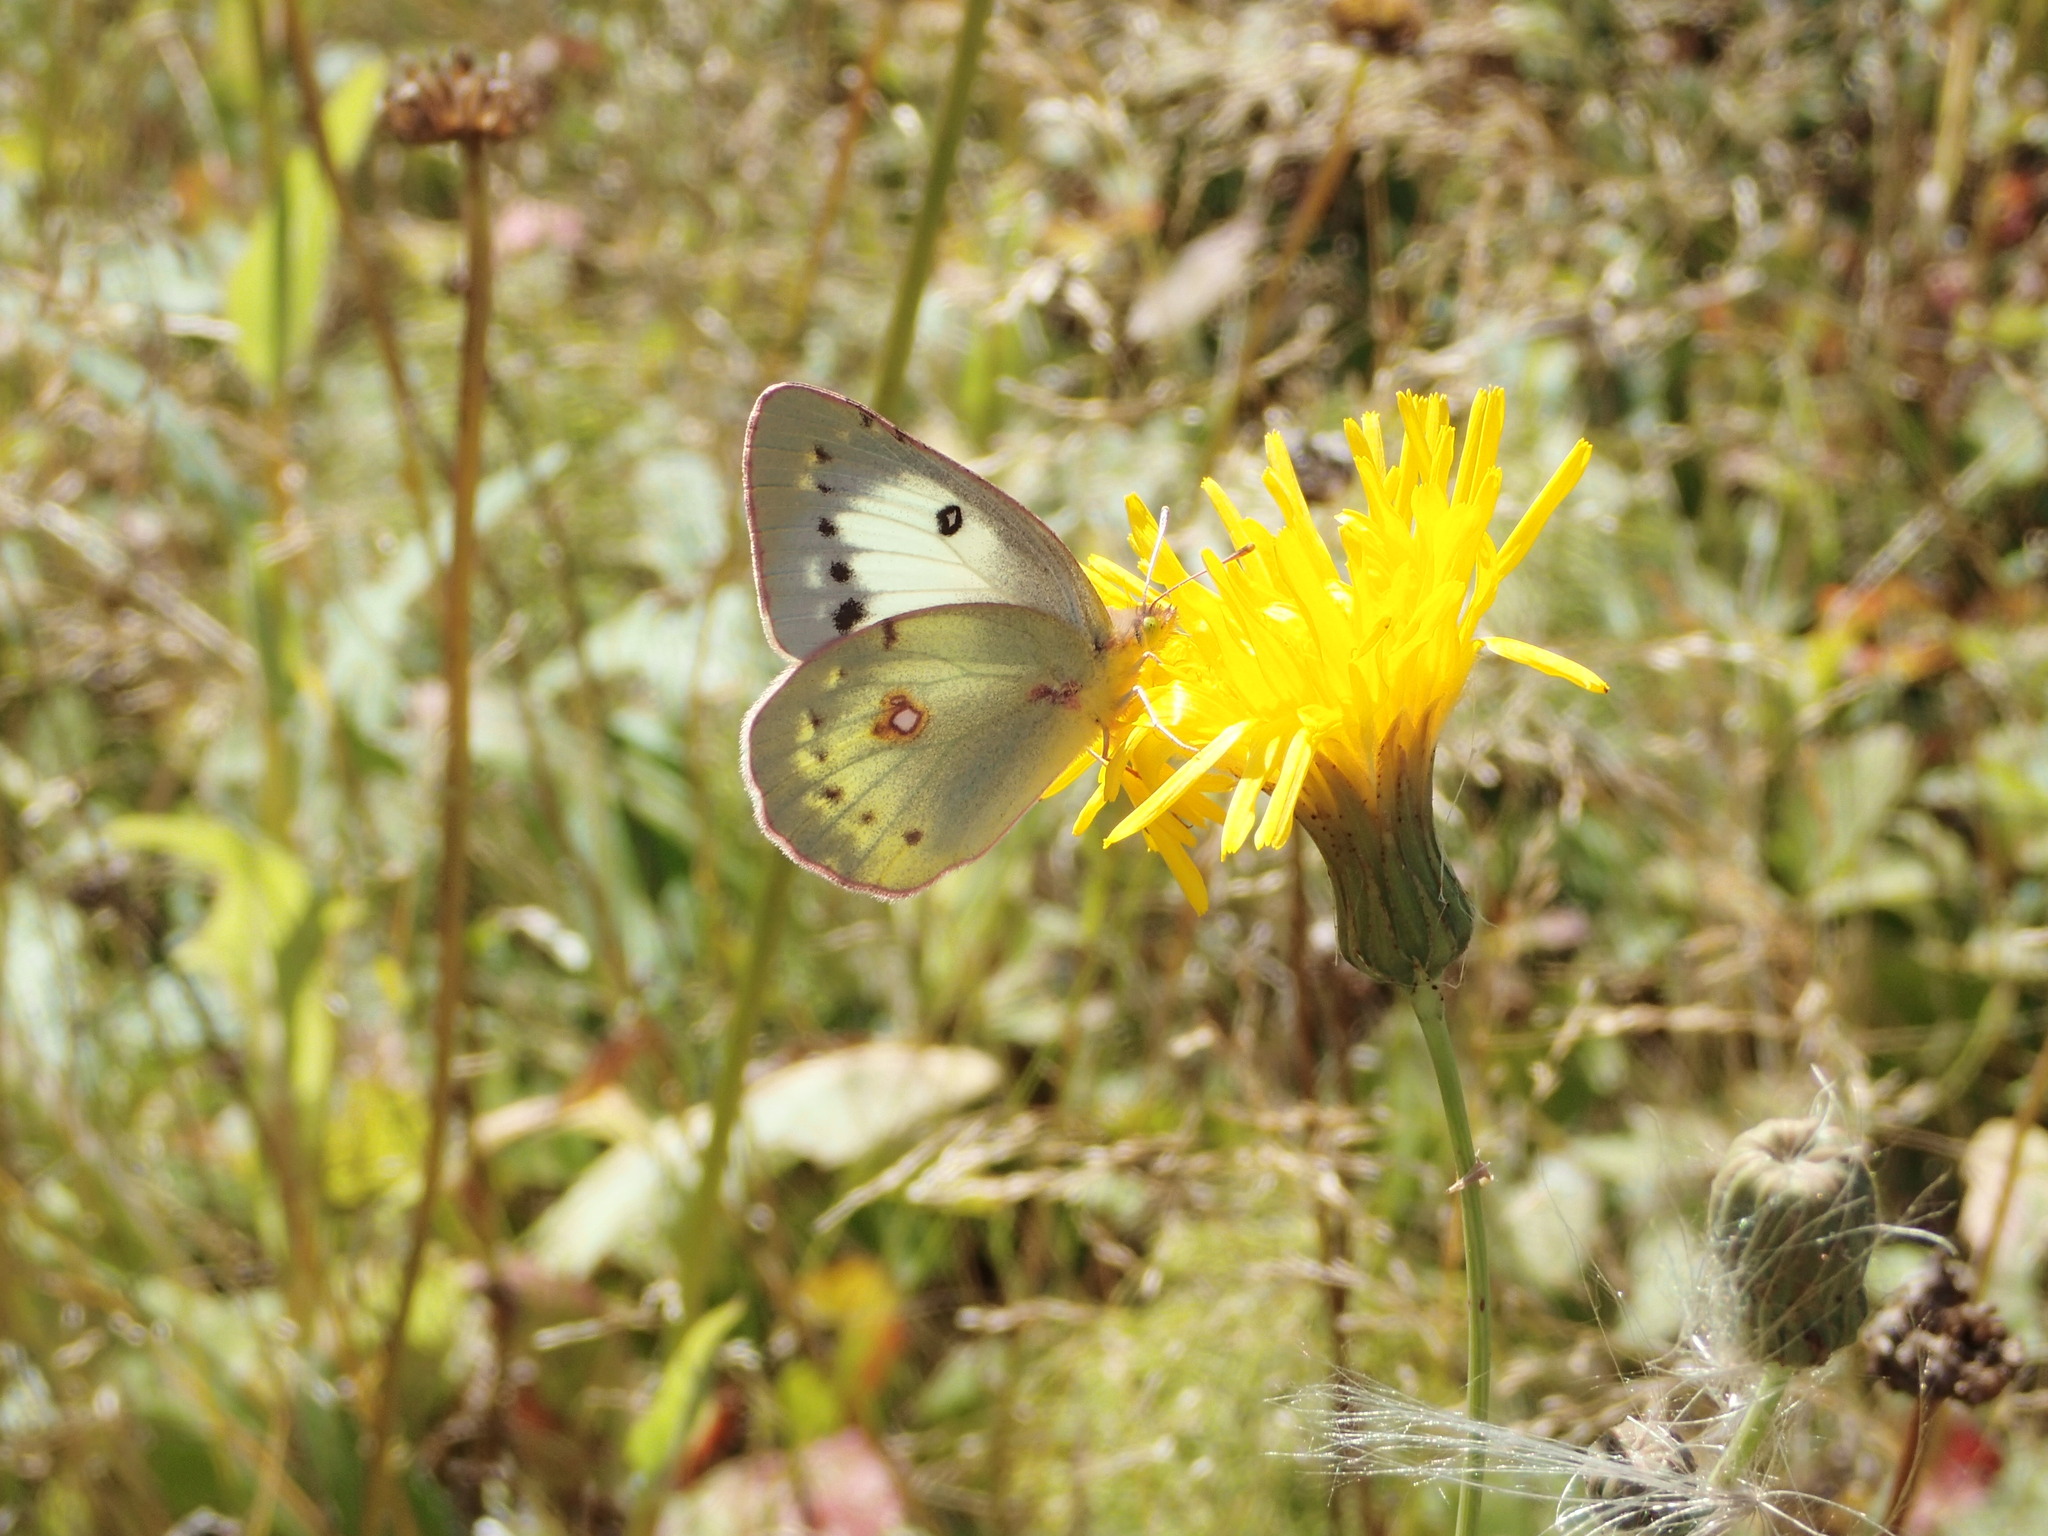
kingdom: Animalia
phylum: Arthropoda
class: Insecta
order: Lepidoptera
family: Pieridae
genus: Colias
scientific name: Colias philodice
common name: Clouded sulphur
